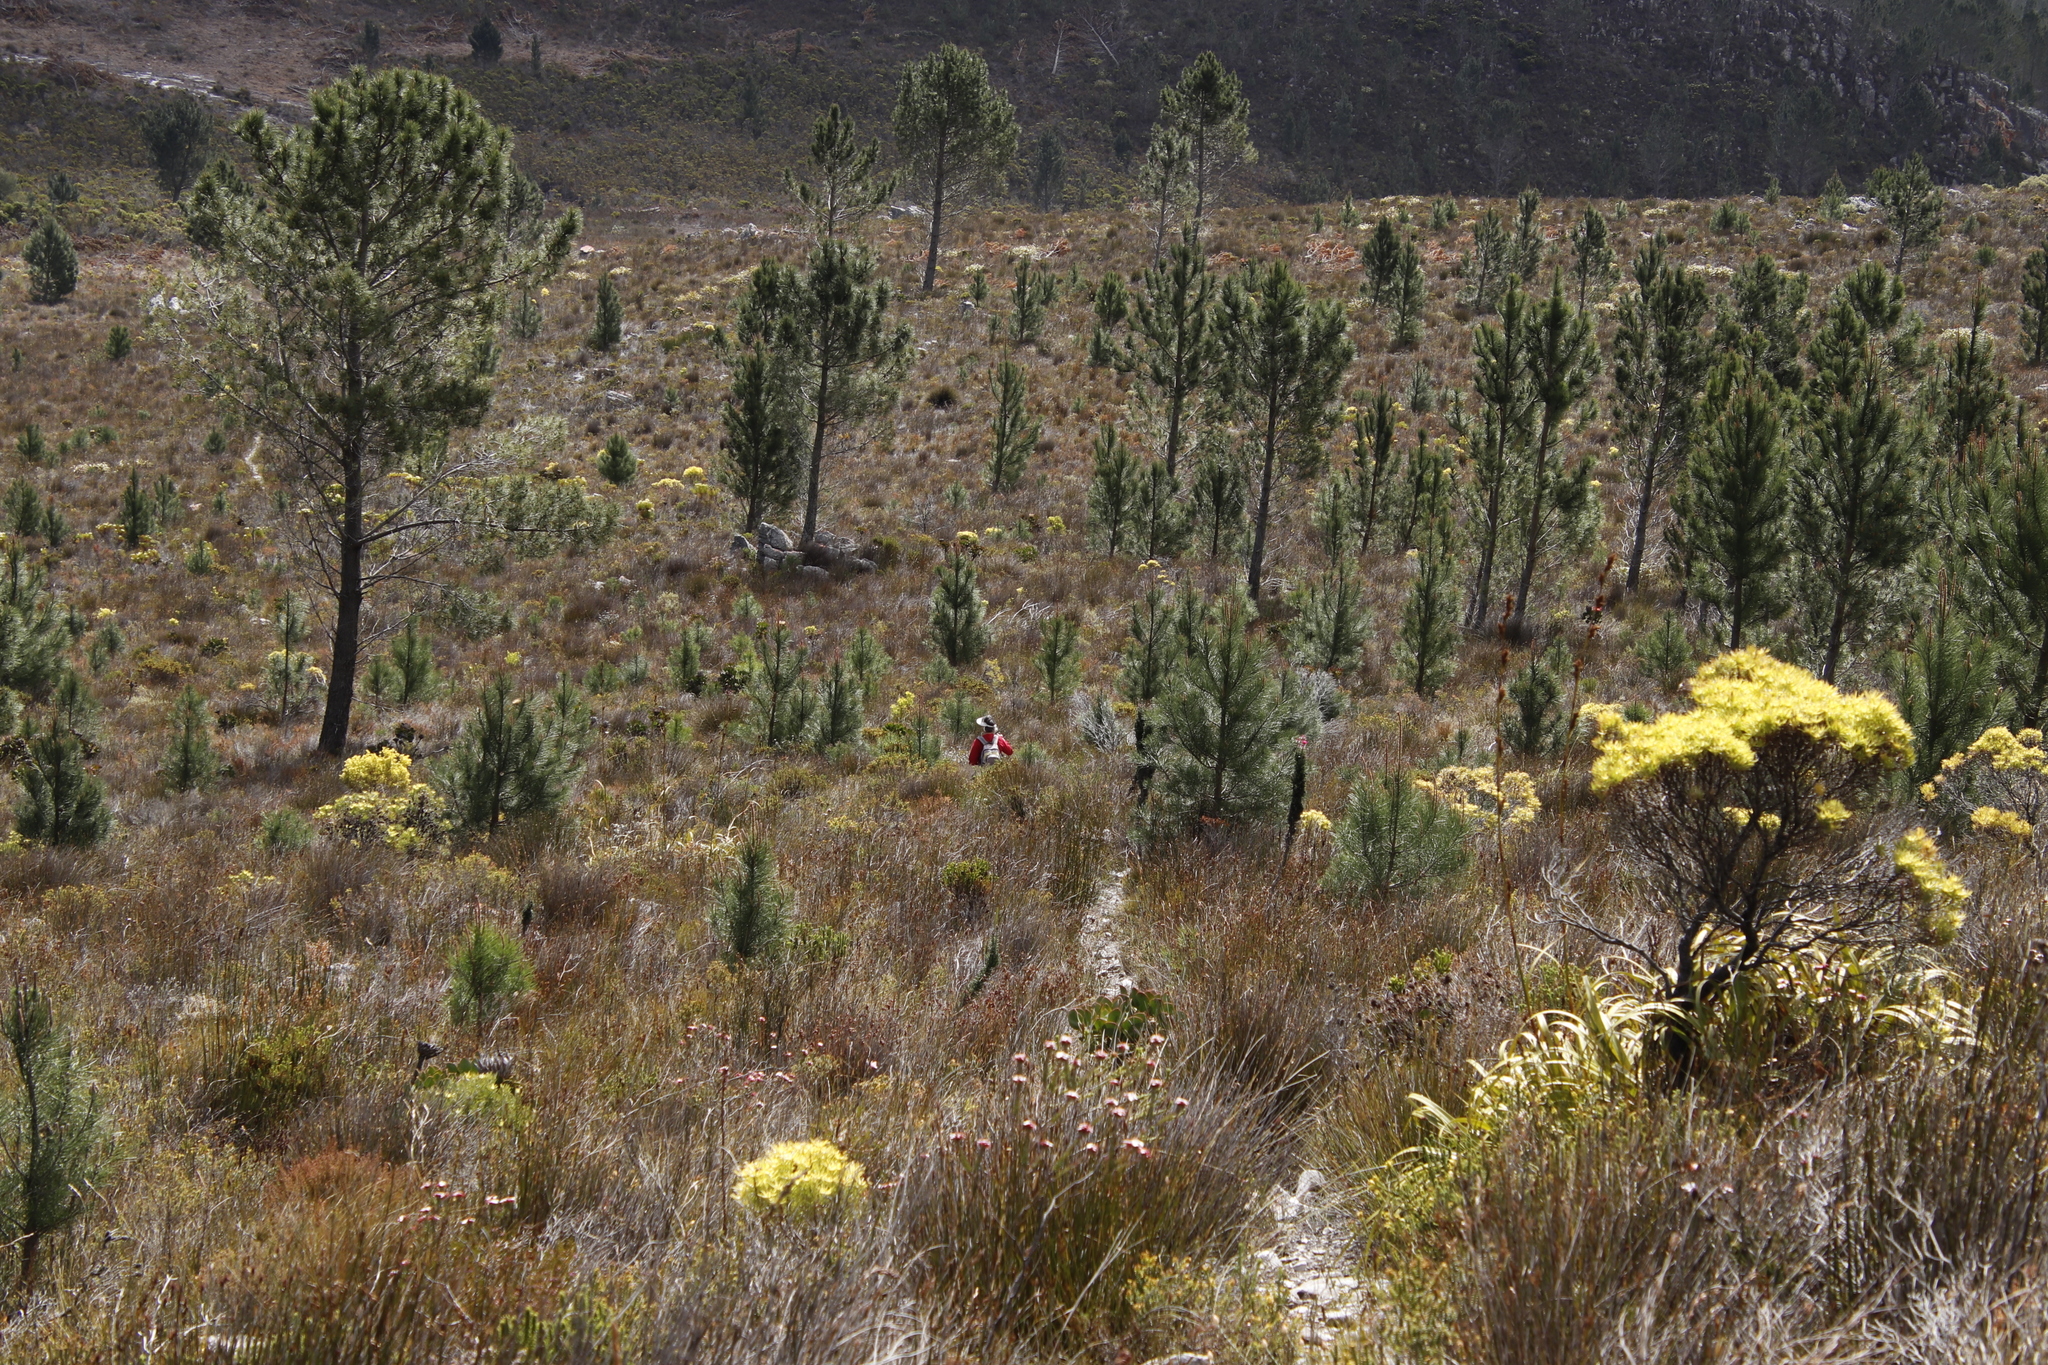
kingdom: Plantae
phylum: Tracheophyta
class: Pinopsida
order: Pinales
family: Pinaceae
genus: Pinus
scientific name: Pinus pinaster
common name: Maritime pine
